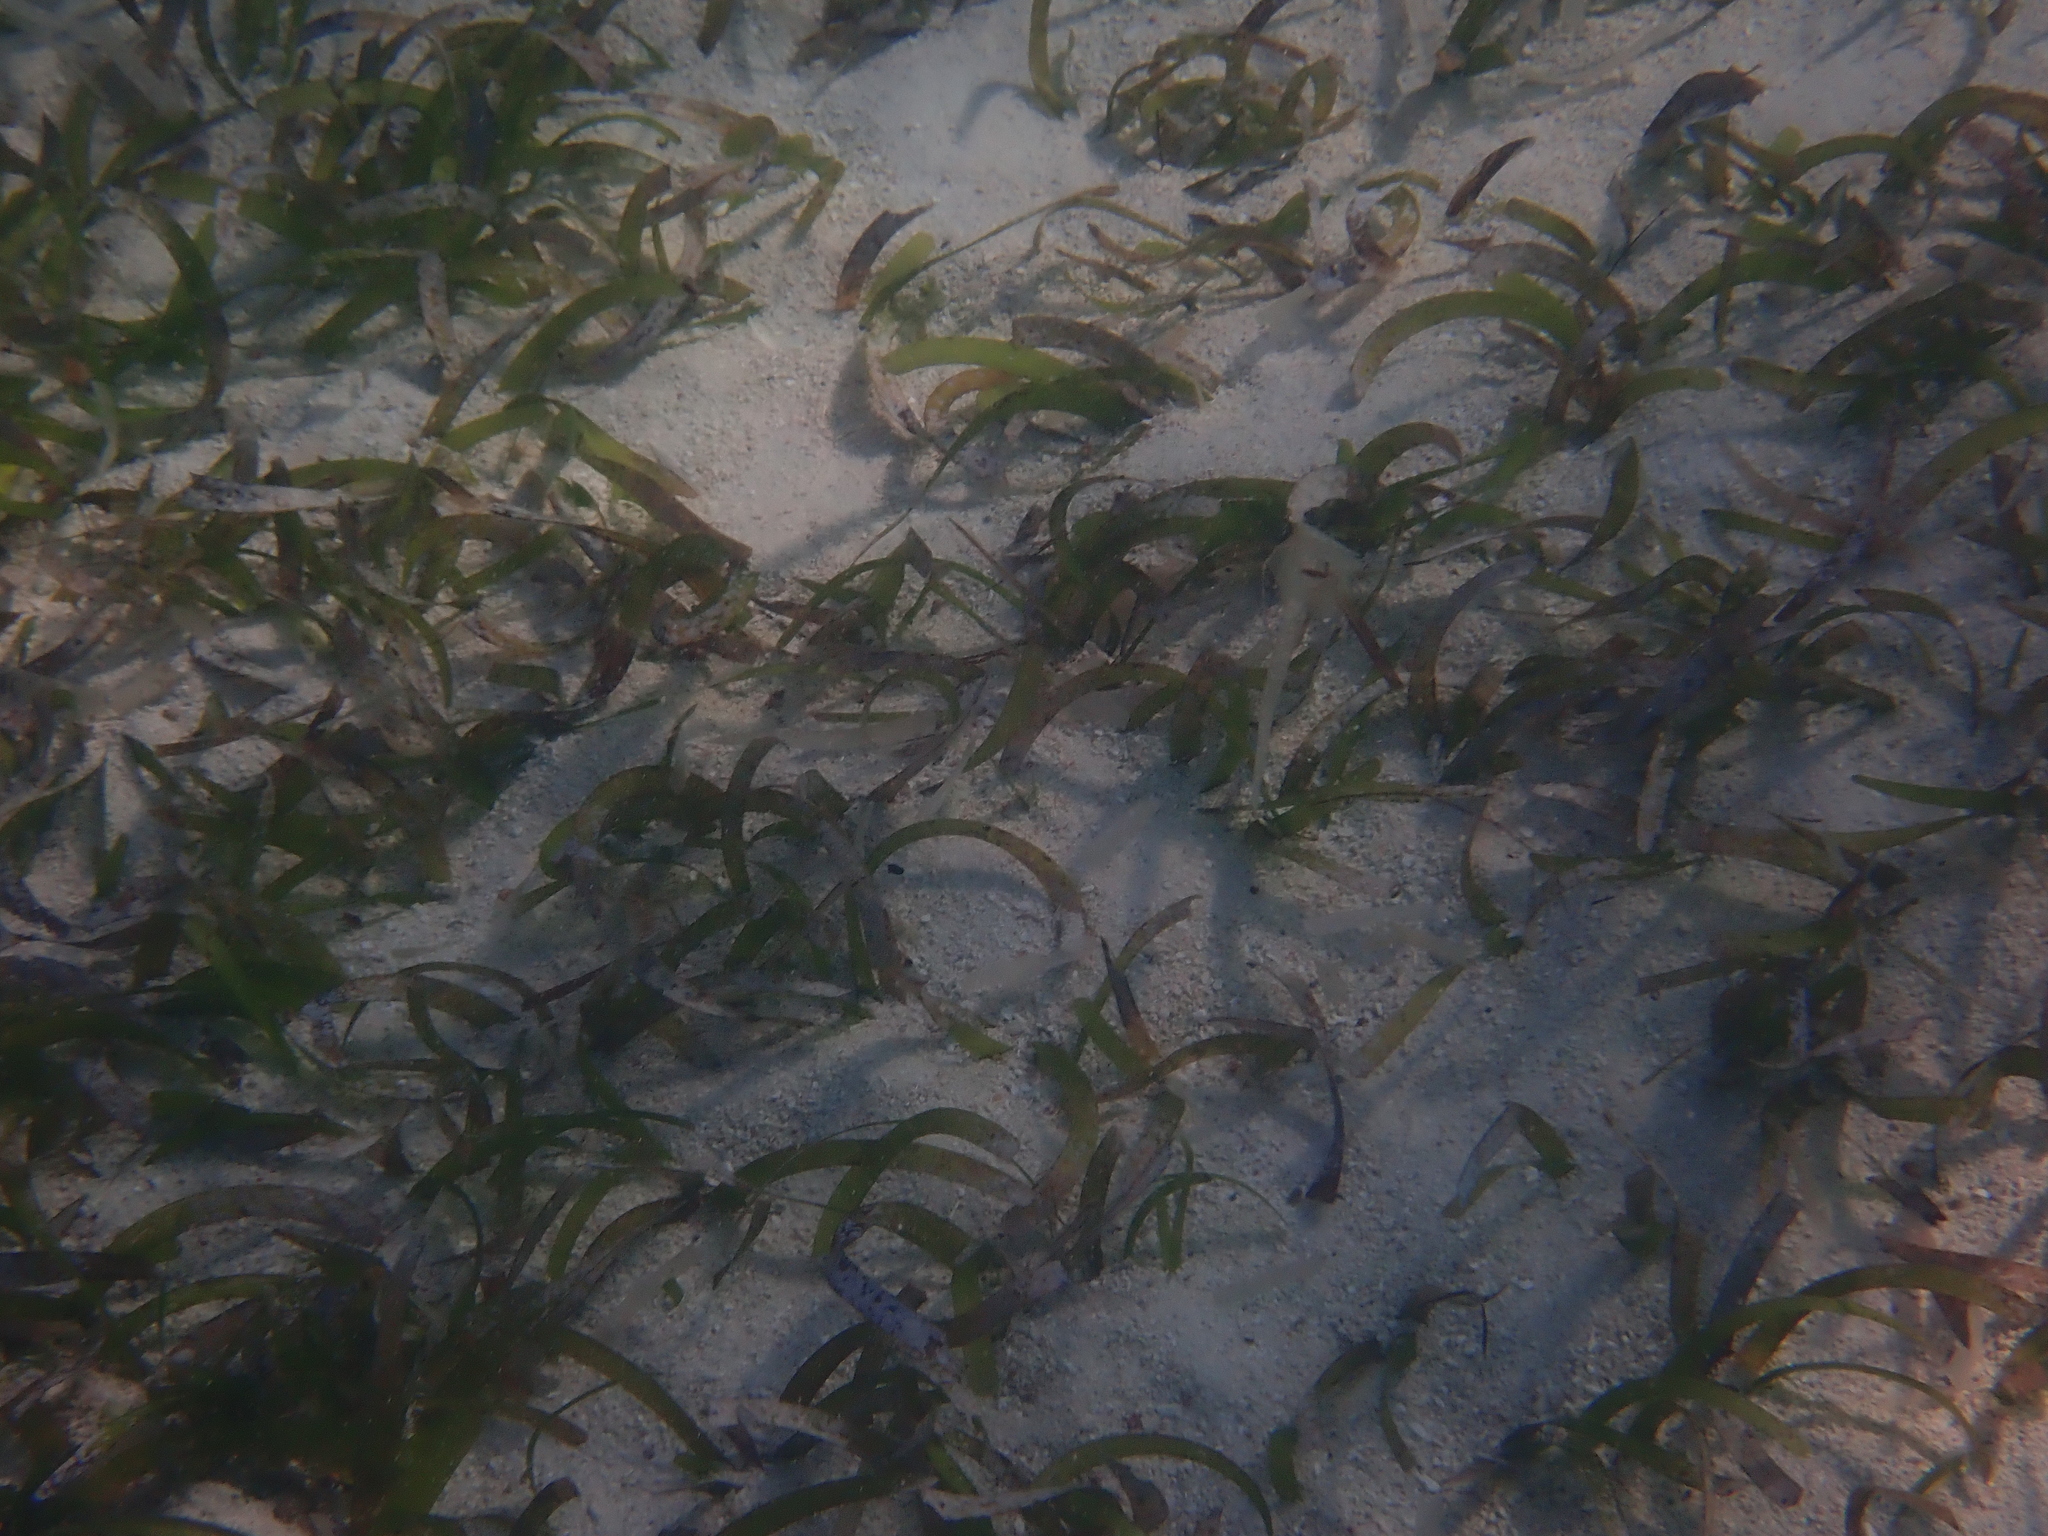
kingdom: Plantae
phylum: Tracheophyta
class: Liliopsida
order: Alismatales
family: Hydrocharitaceae
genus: Thalassia
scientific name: Thalassia testudinum
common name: Species code: tt
